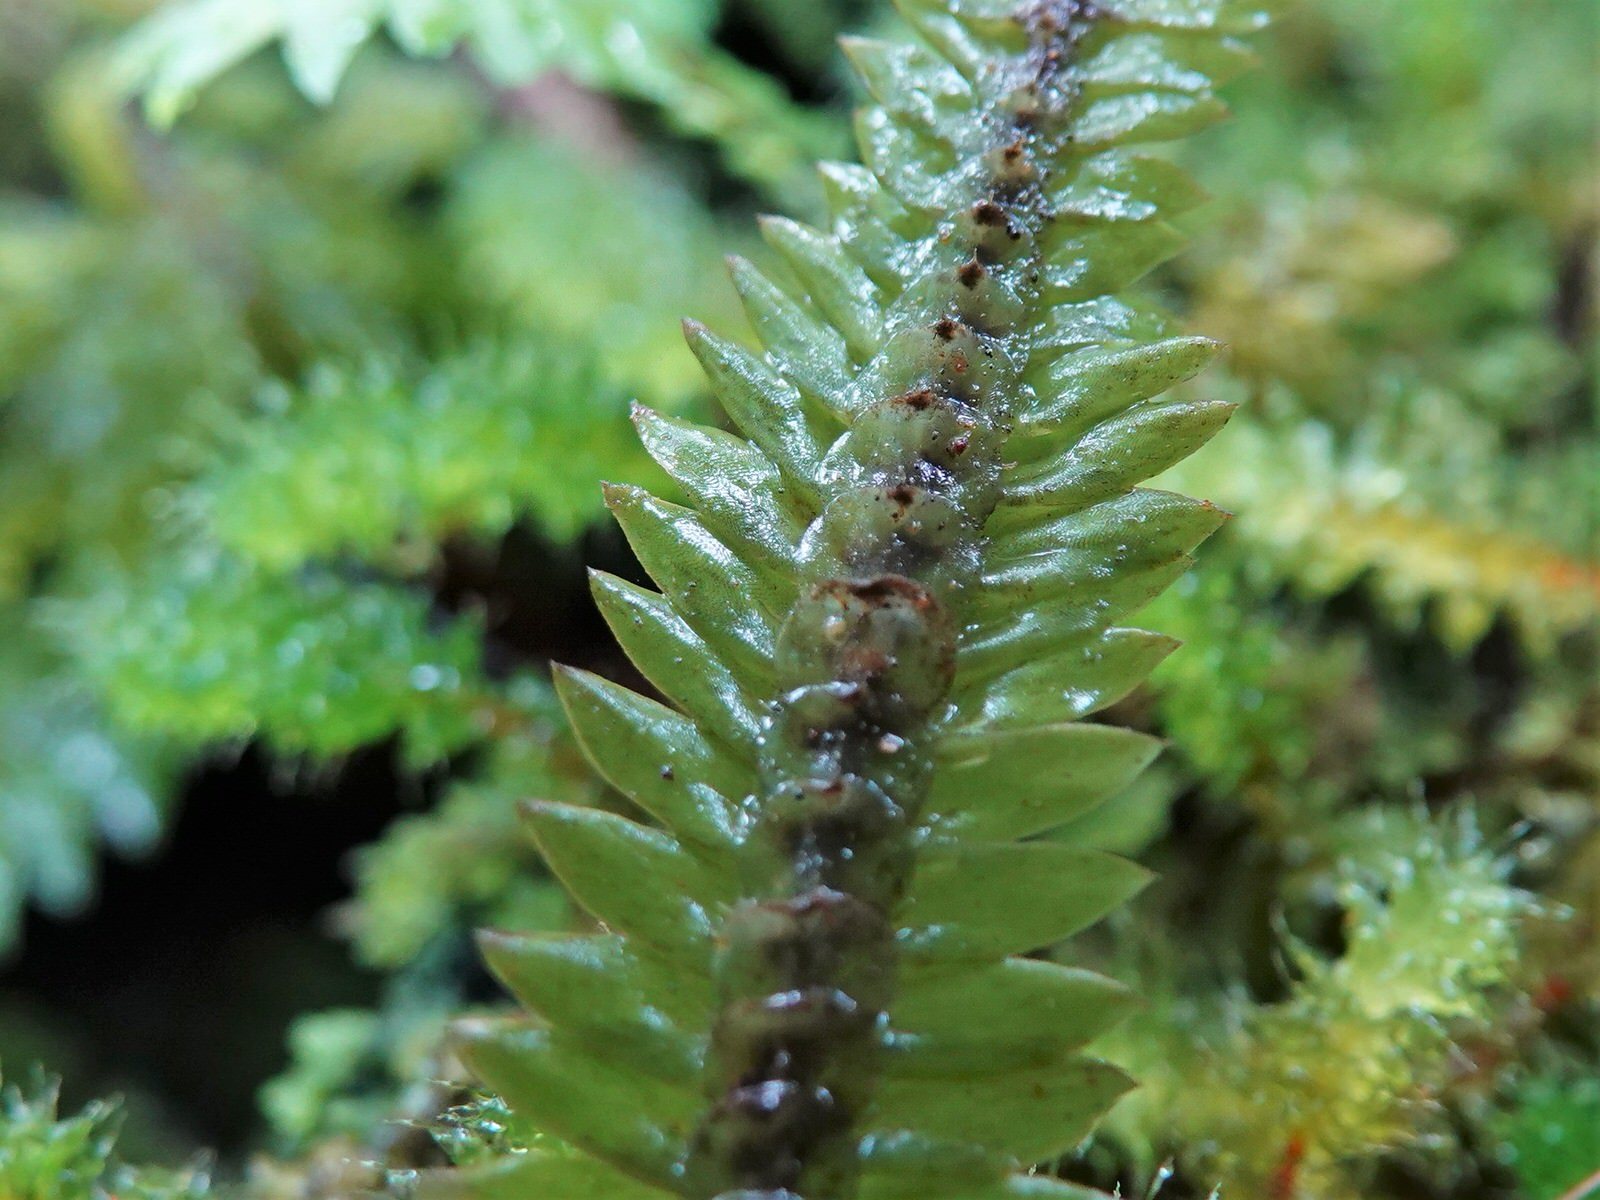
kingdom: Plantae
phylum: Bryophyta
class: Bryopsida
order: Hypopterygiales
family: Hypopterygiaceae
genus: Cyathophorum
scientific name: Cyathophorum bulbosum
